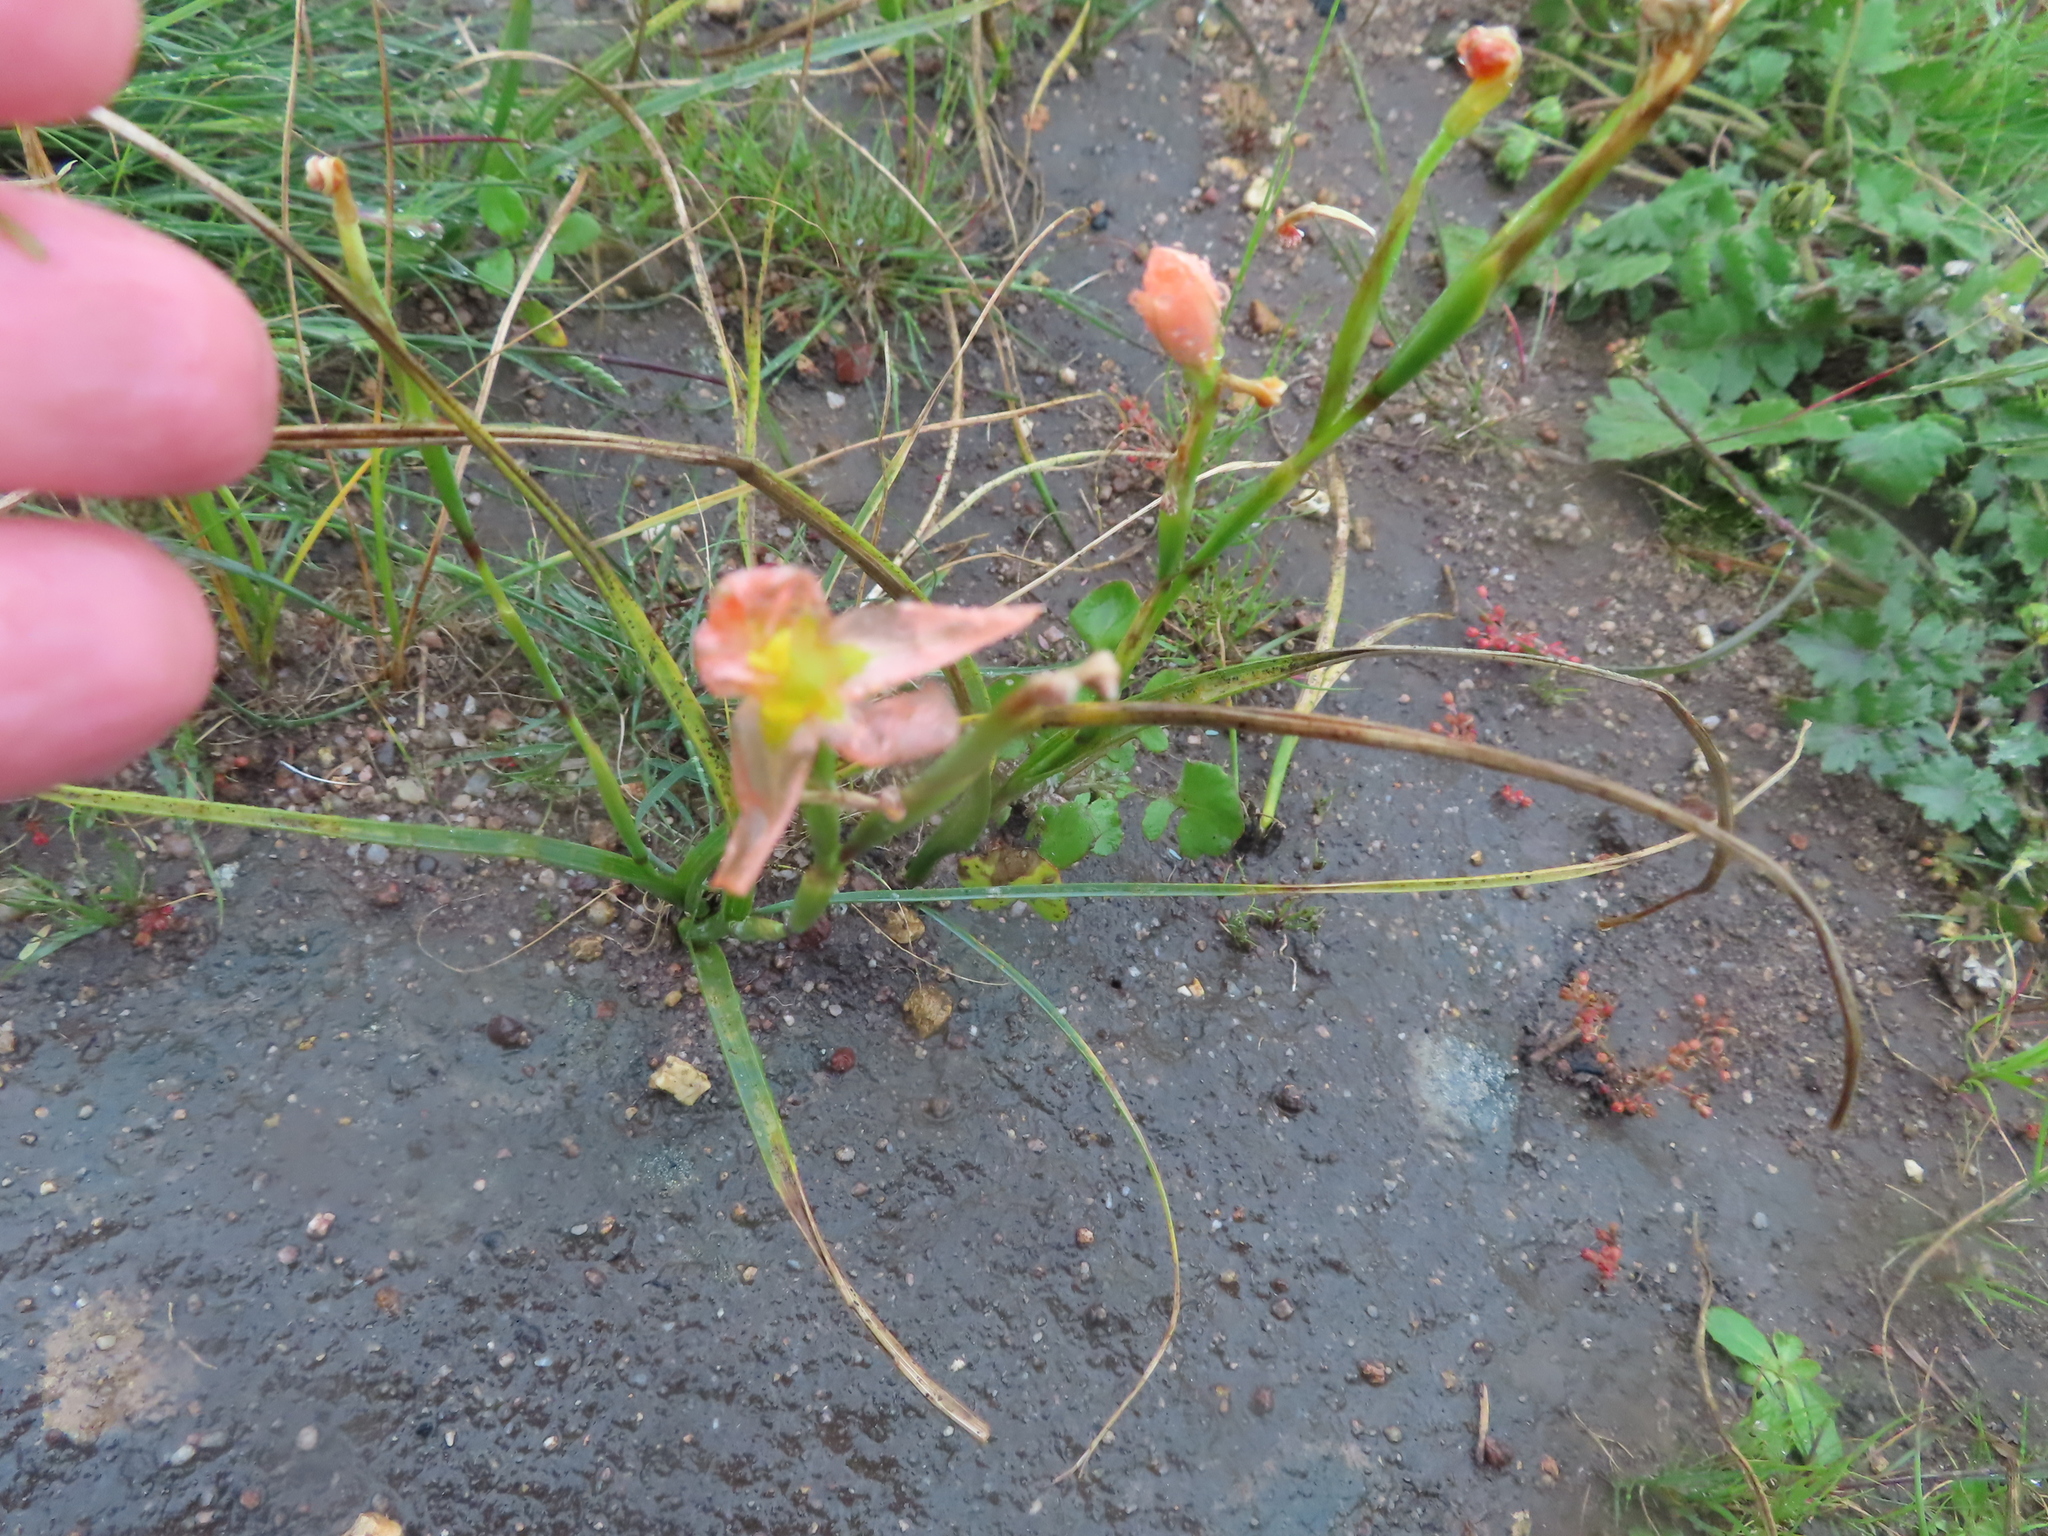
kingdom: Plantae
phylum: Tracheophyta
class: Liliopsida
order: Asparagales
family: Iridaceae
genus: Moraea
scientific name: Moraea miniata
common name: Two-leaf cape-tulip
